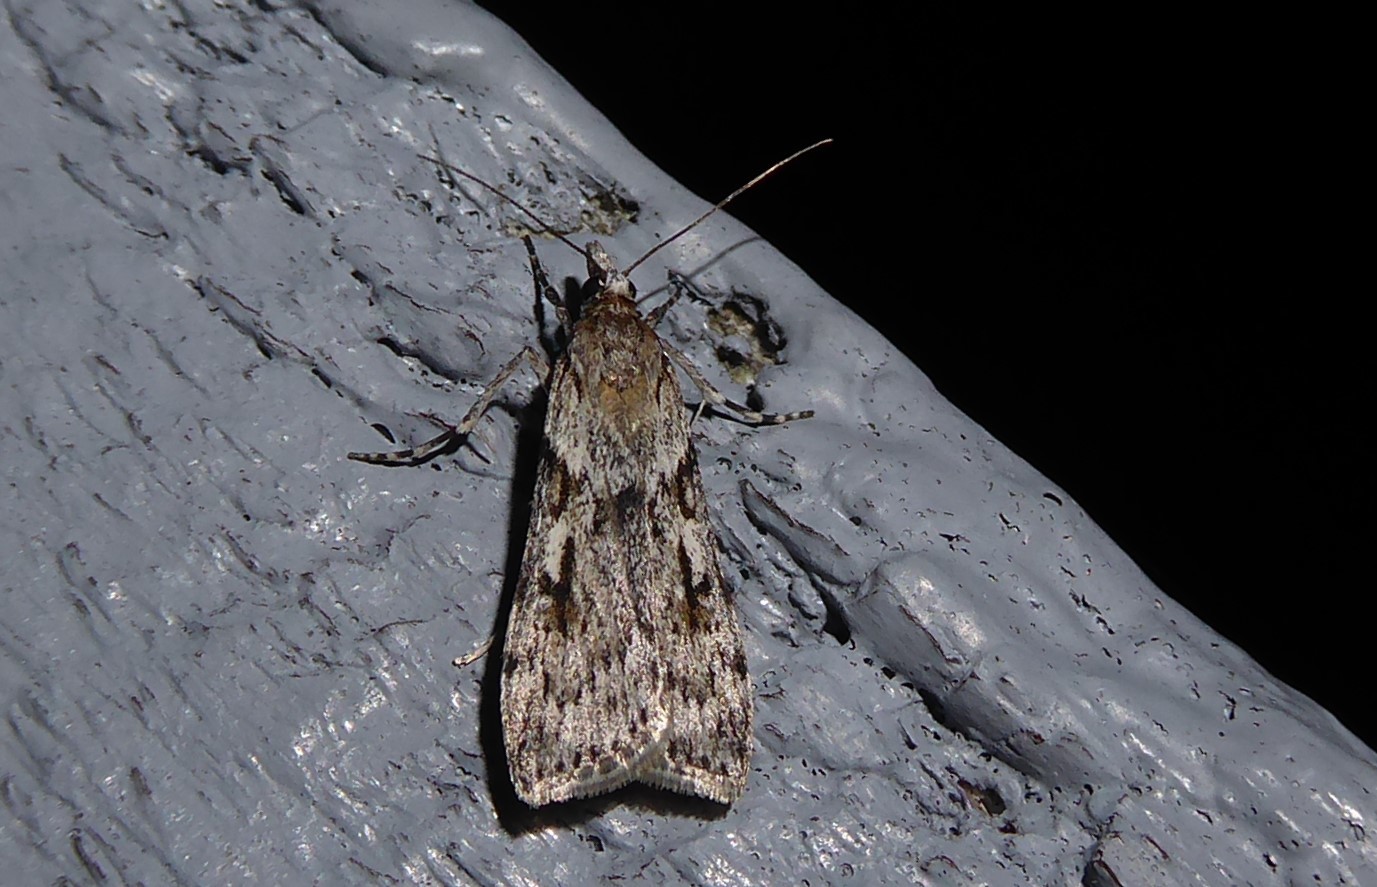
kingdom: Animalia
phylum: Arthropoda
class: Insecta
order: Lepidoptera
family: Crambidae
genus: Scoparia
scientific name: Scoparia halopis
